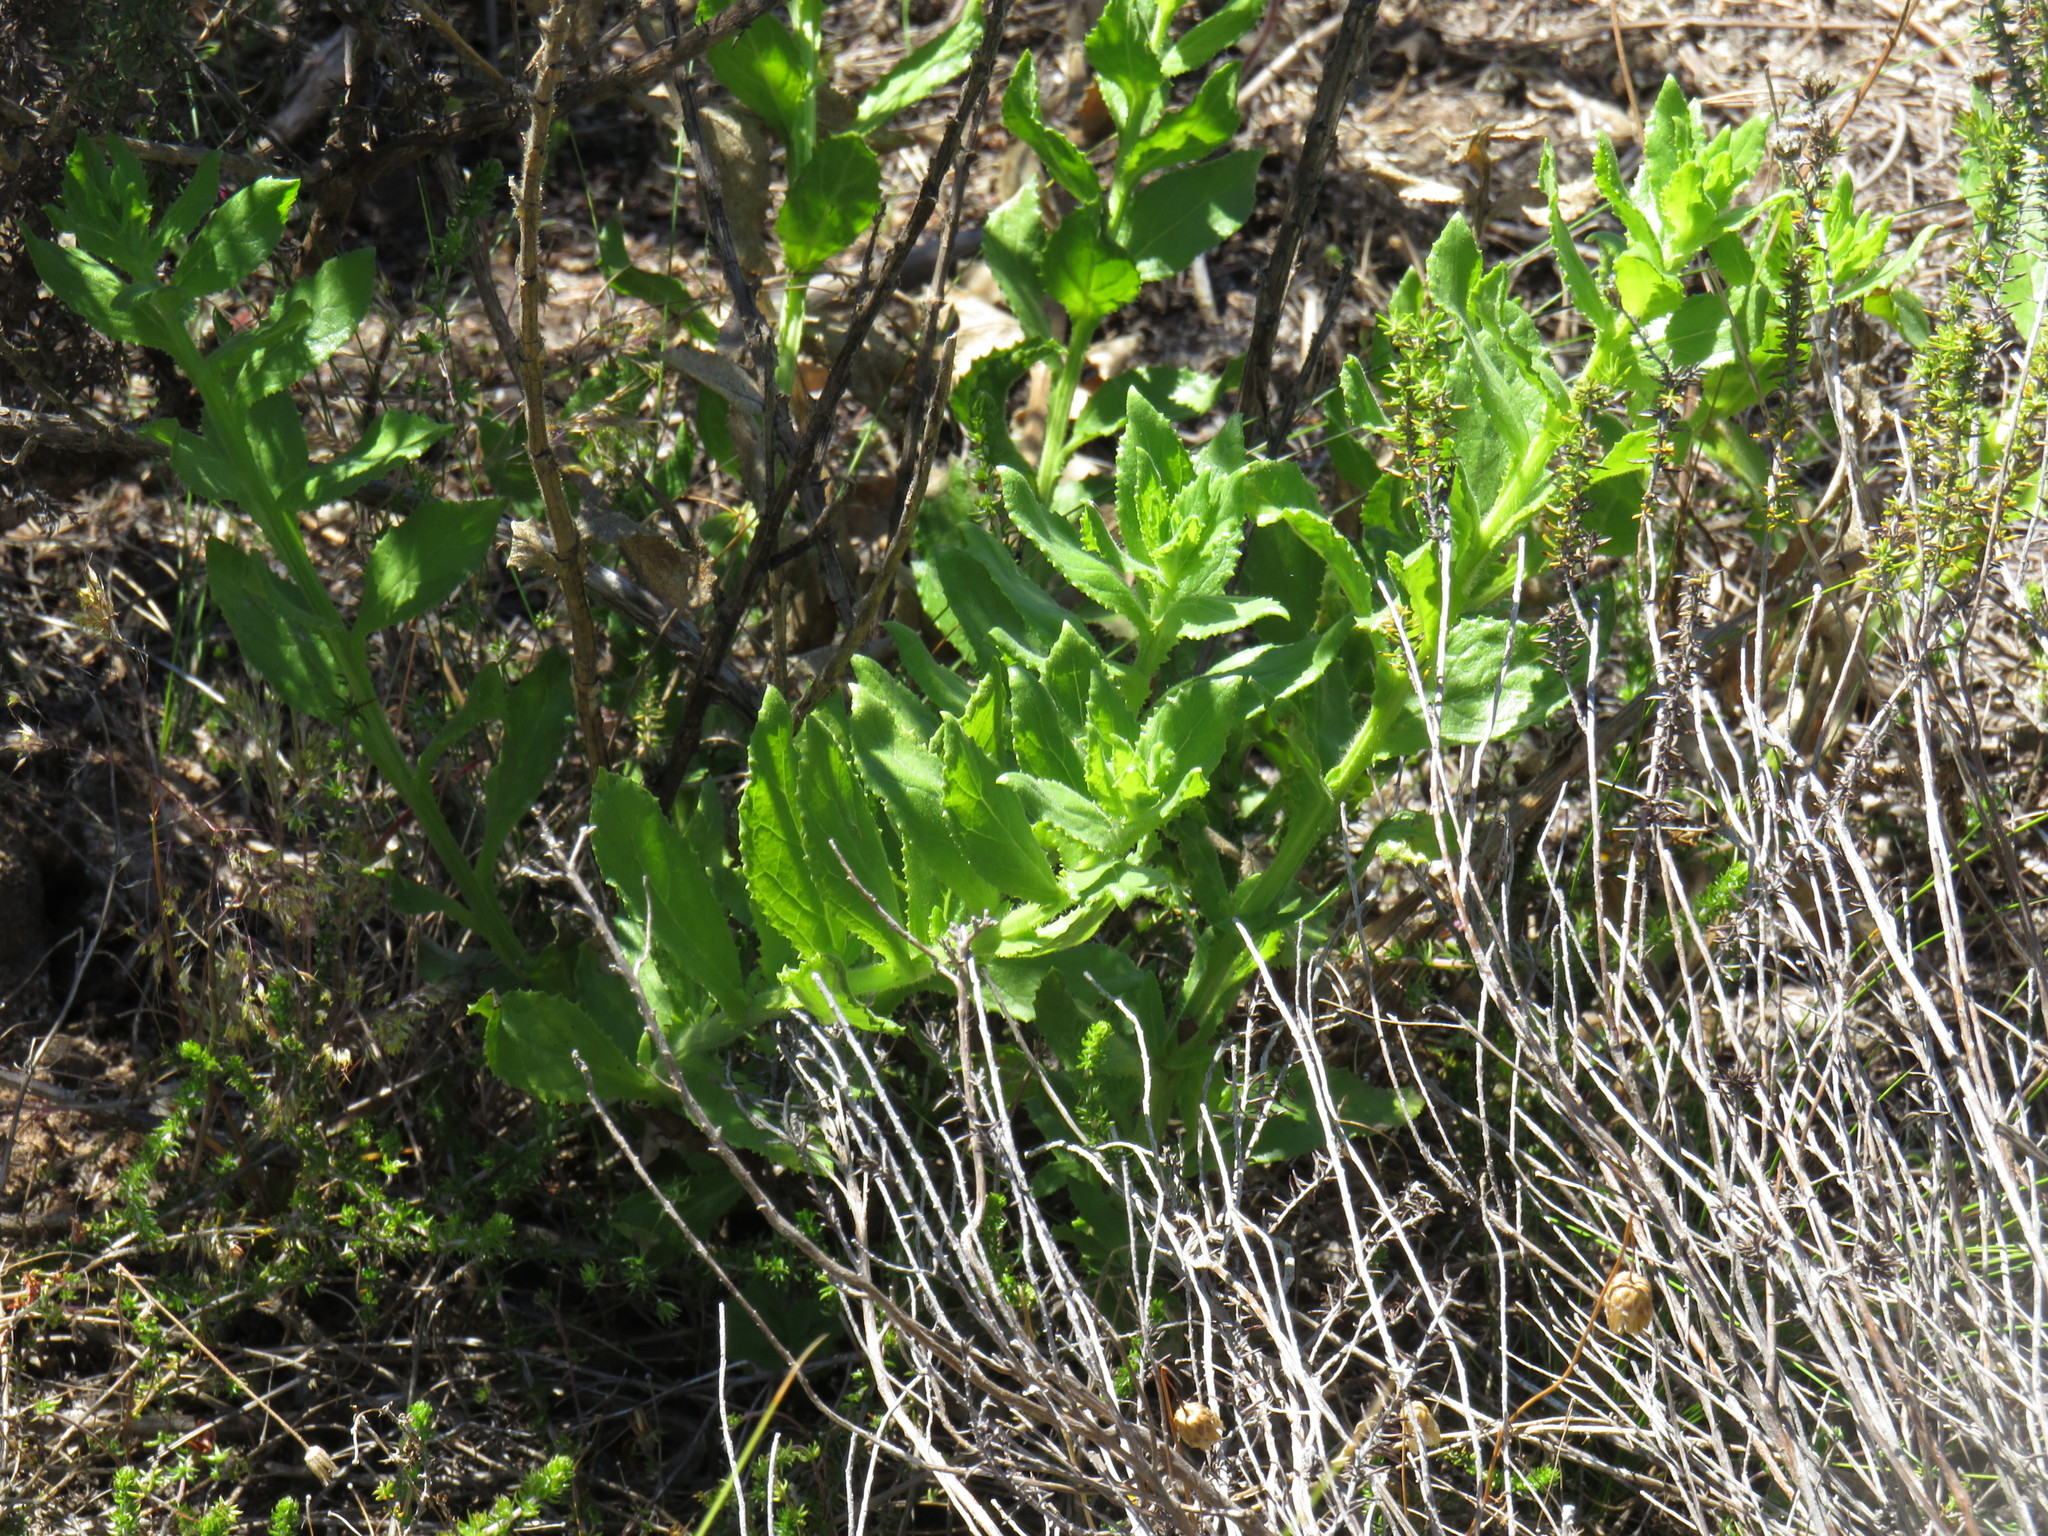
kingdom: Plantae
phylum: Tracheophyta
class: Magnoliopsida
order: Lamiales
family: Scrophulariaceae
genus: Oftia
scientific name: Oftia africana
